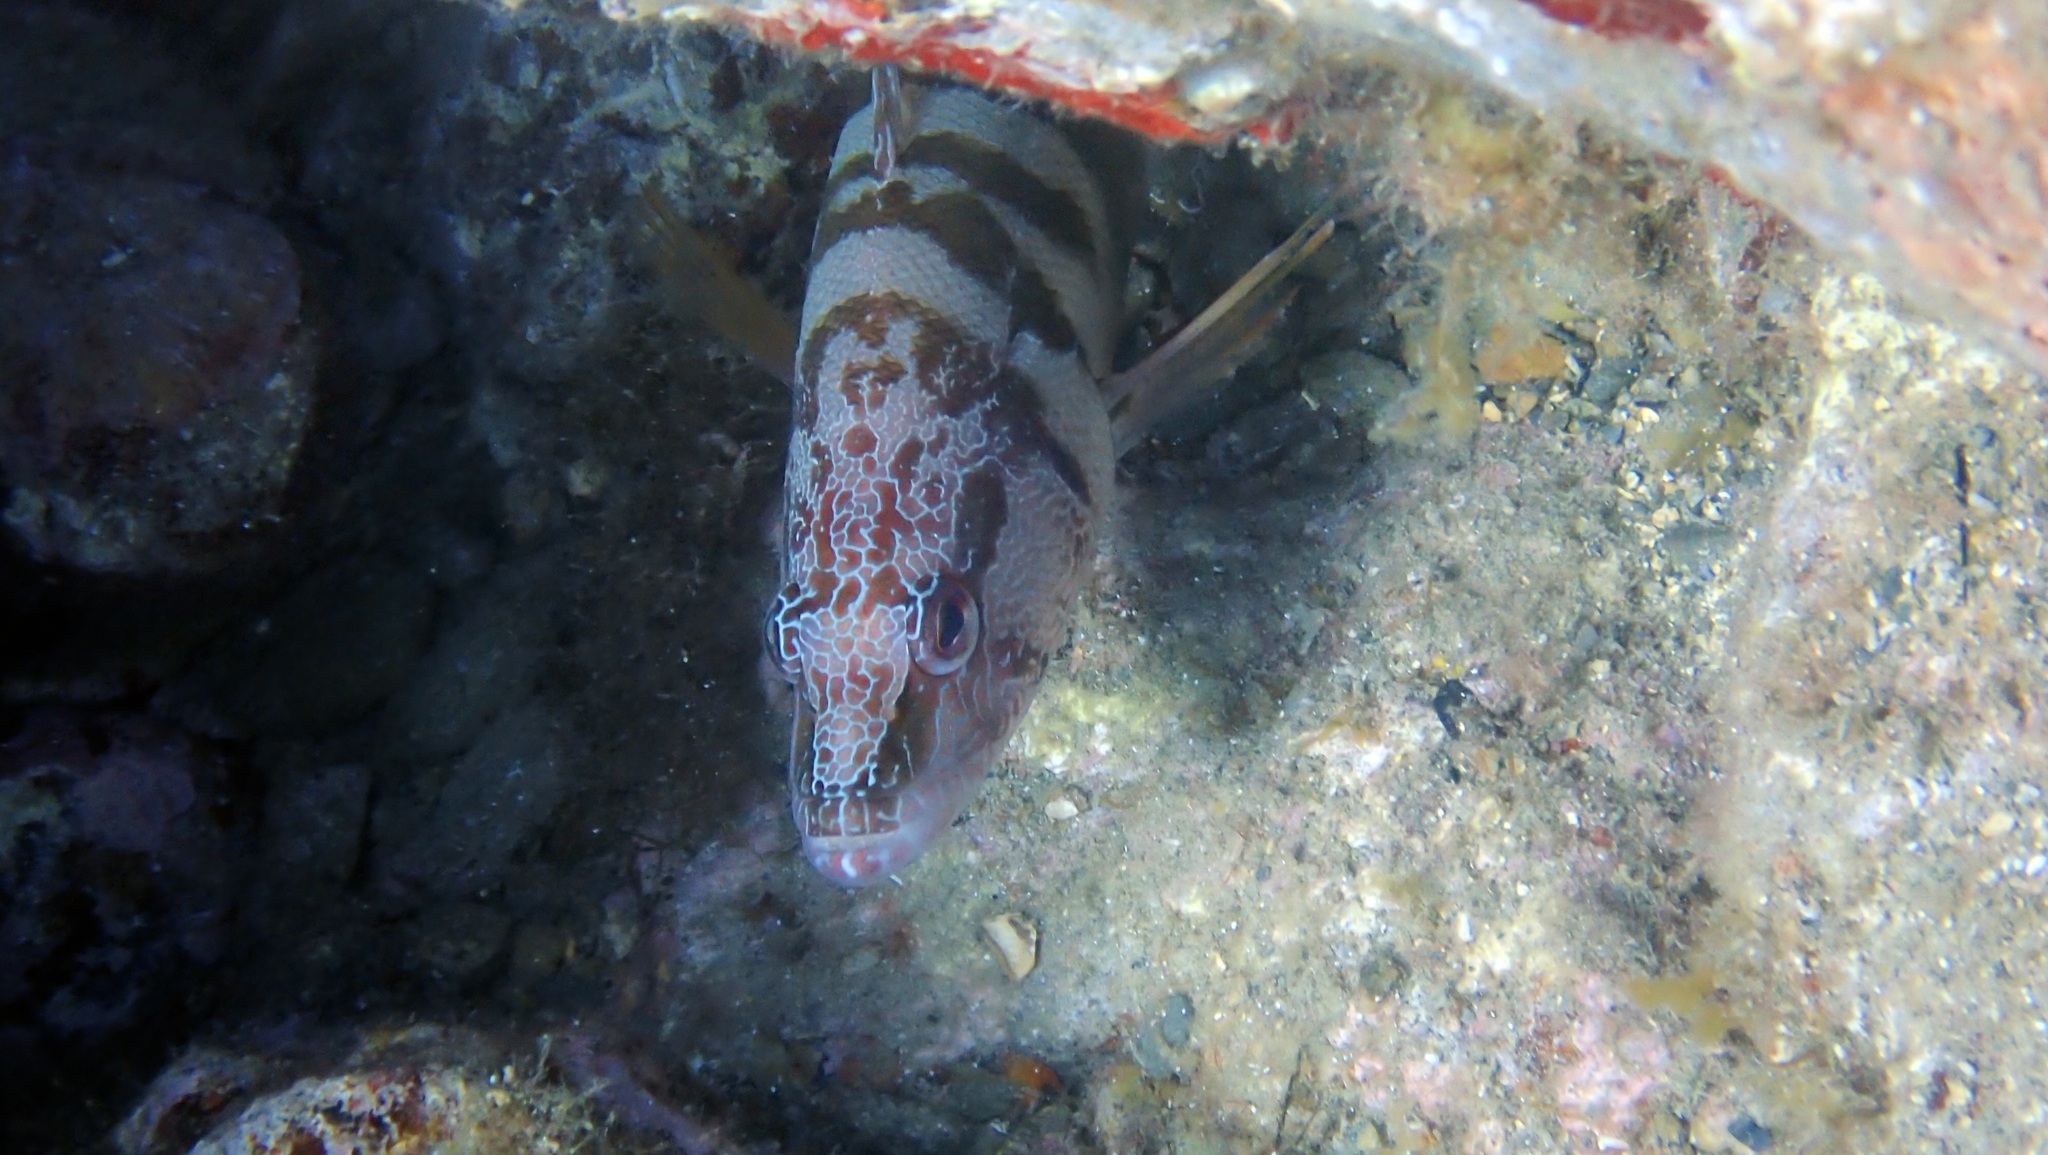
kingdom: Animalia
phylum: Chordata
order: Perciformes
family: Serranidae
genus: Serranus
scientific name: Serranus scriba
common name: Painted comber
